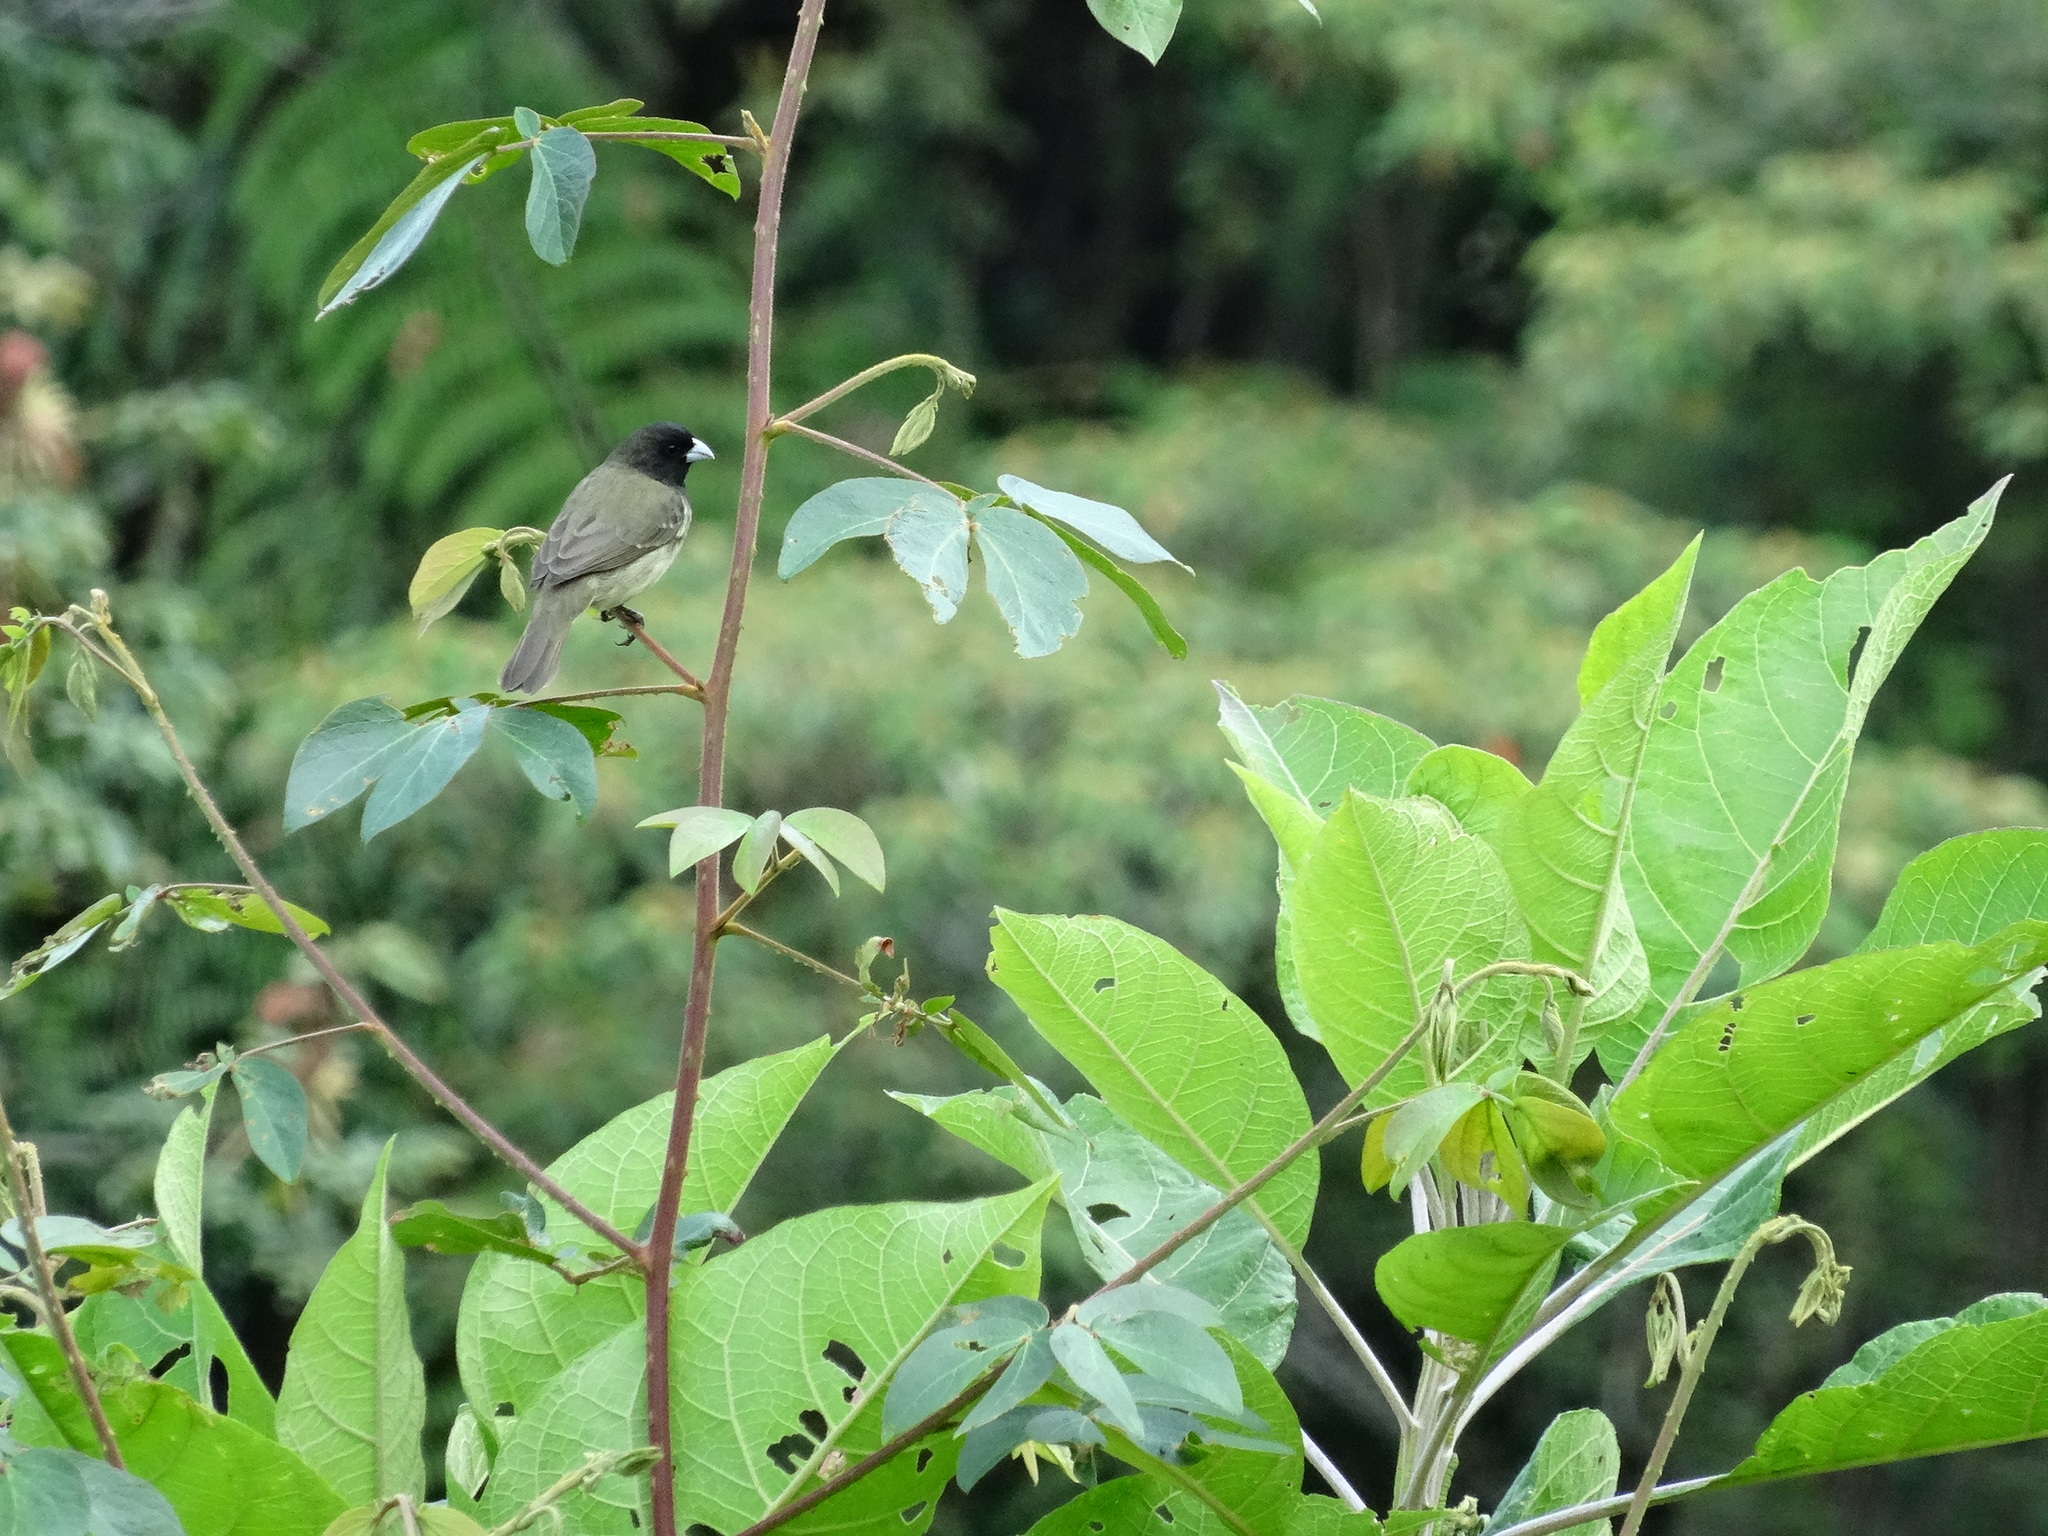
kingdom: Animalia
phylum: Chordata
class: Aves
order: Passeriformes
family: Thraupidae
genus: Sporophila
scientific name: Sporophila nigricollis
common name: Yellow-bellied seedeater
